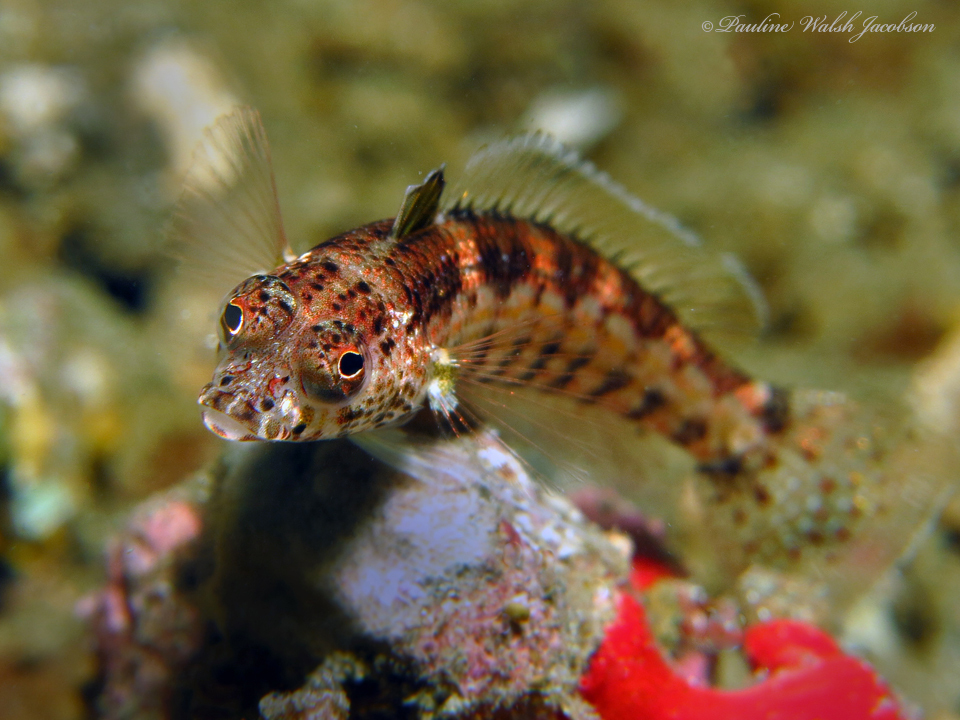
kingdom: Animalia
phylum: Chordata
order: Perciformes
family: Pinguipedidae
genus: Parapercis
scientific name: Parapercis snyderi
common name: U-mark sandperch
